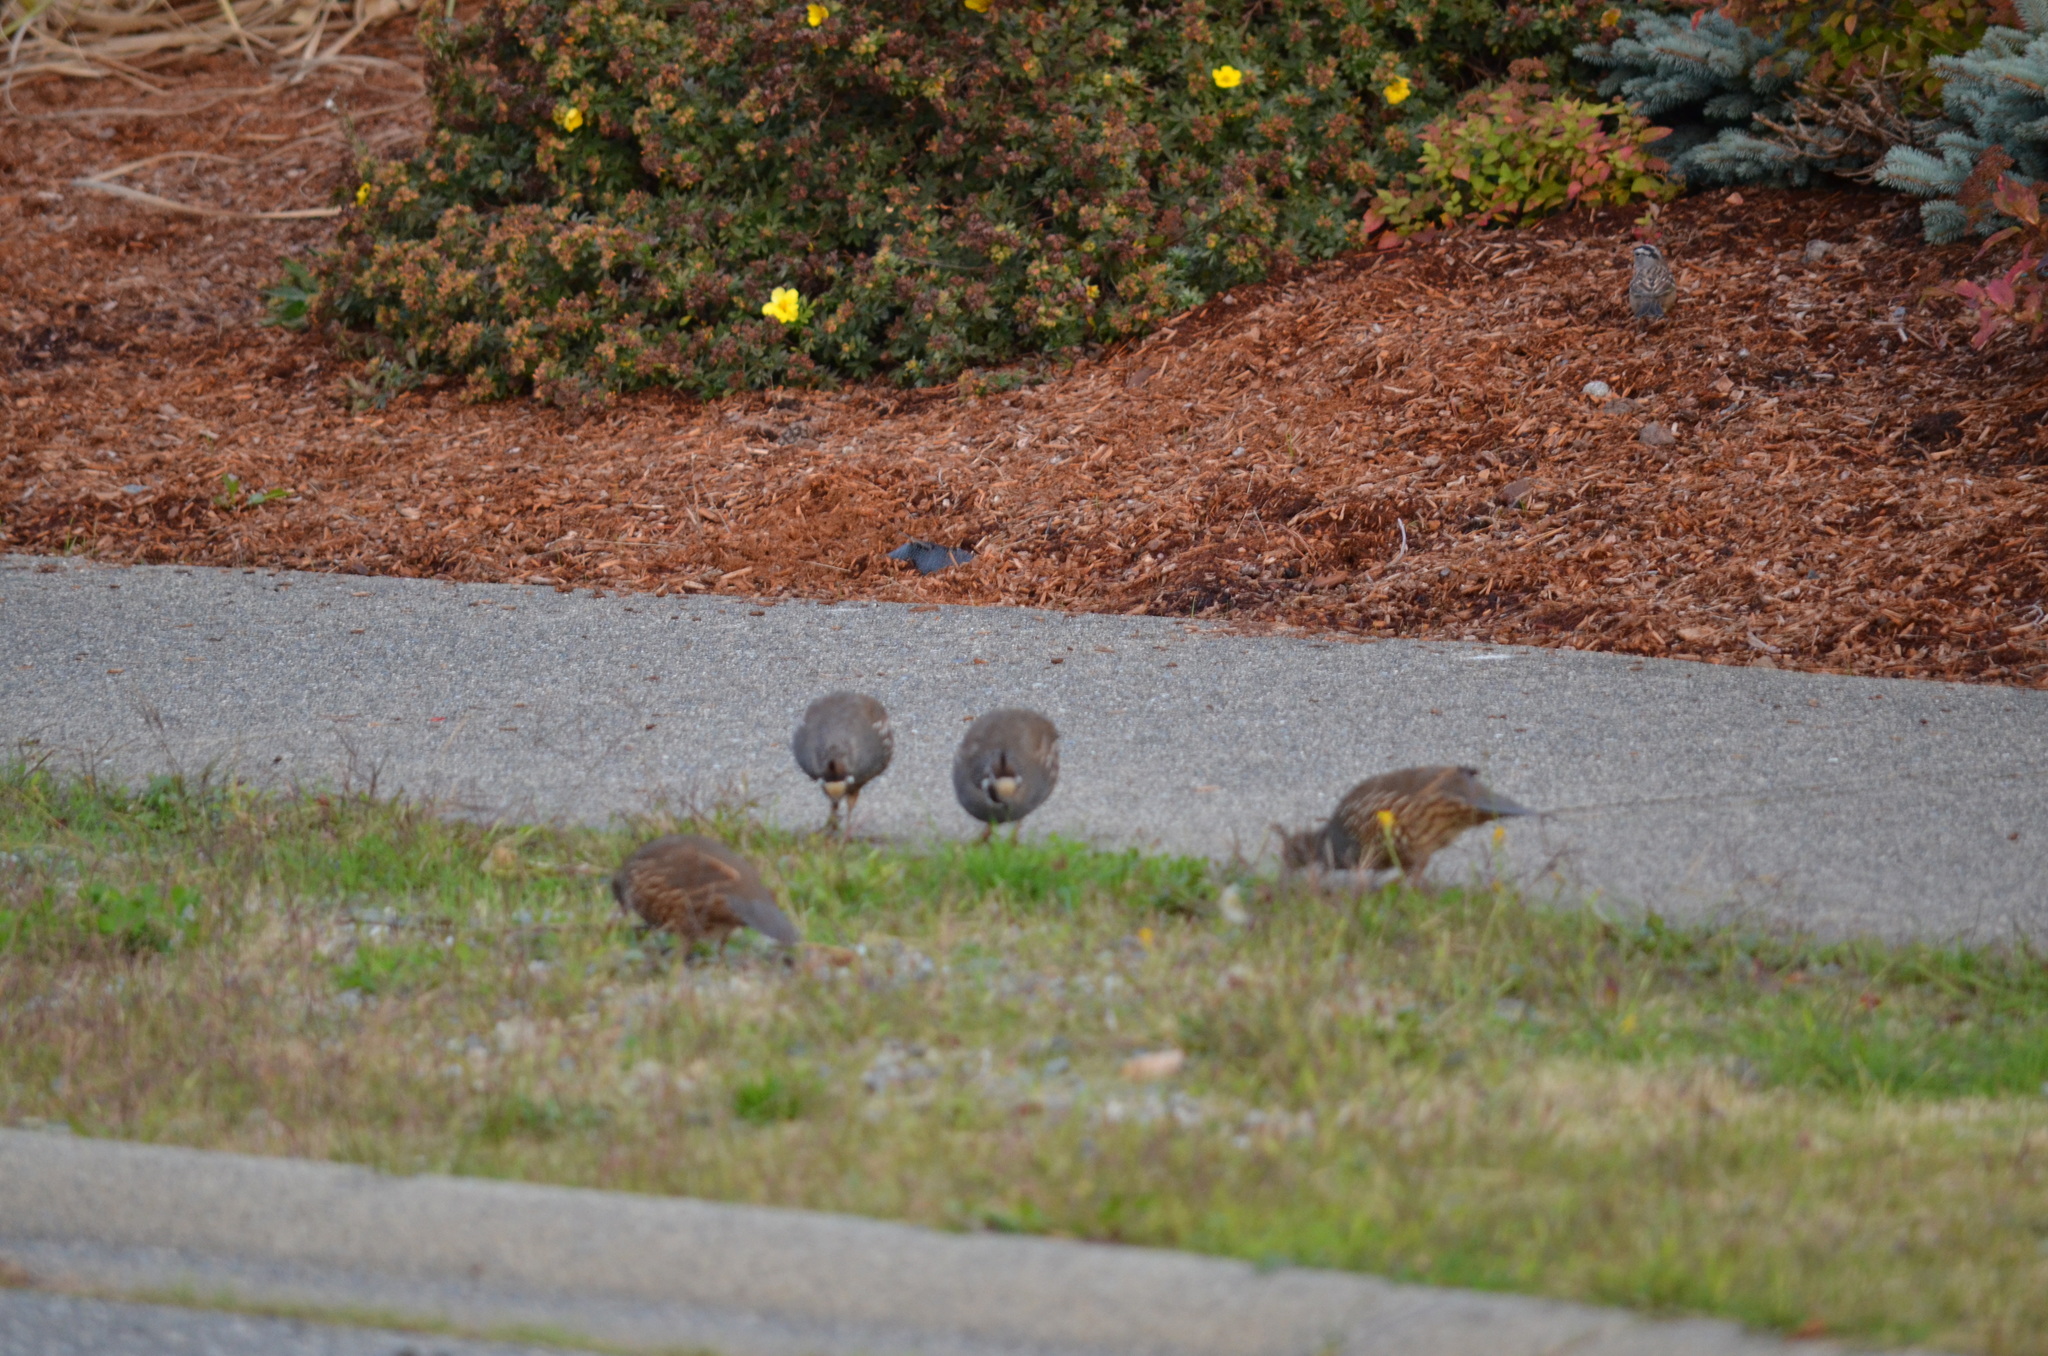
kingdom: Animalia
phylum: Chordata
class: Aves
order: Galliformes
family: Odontophoridae
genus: Callipepla
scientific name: Callipepla californica
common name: California quail
